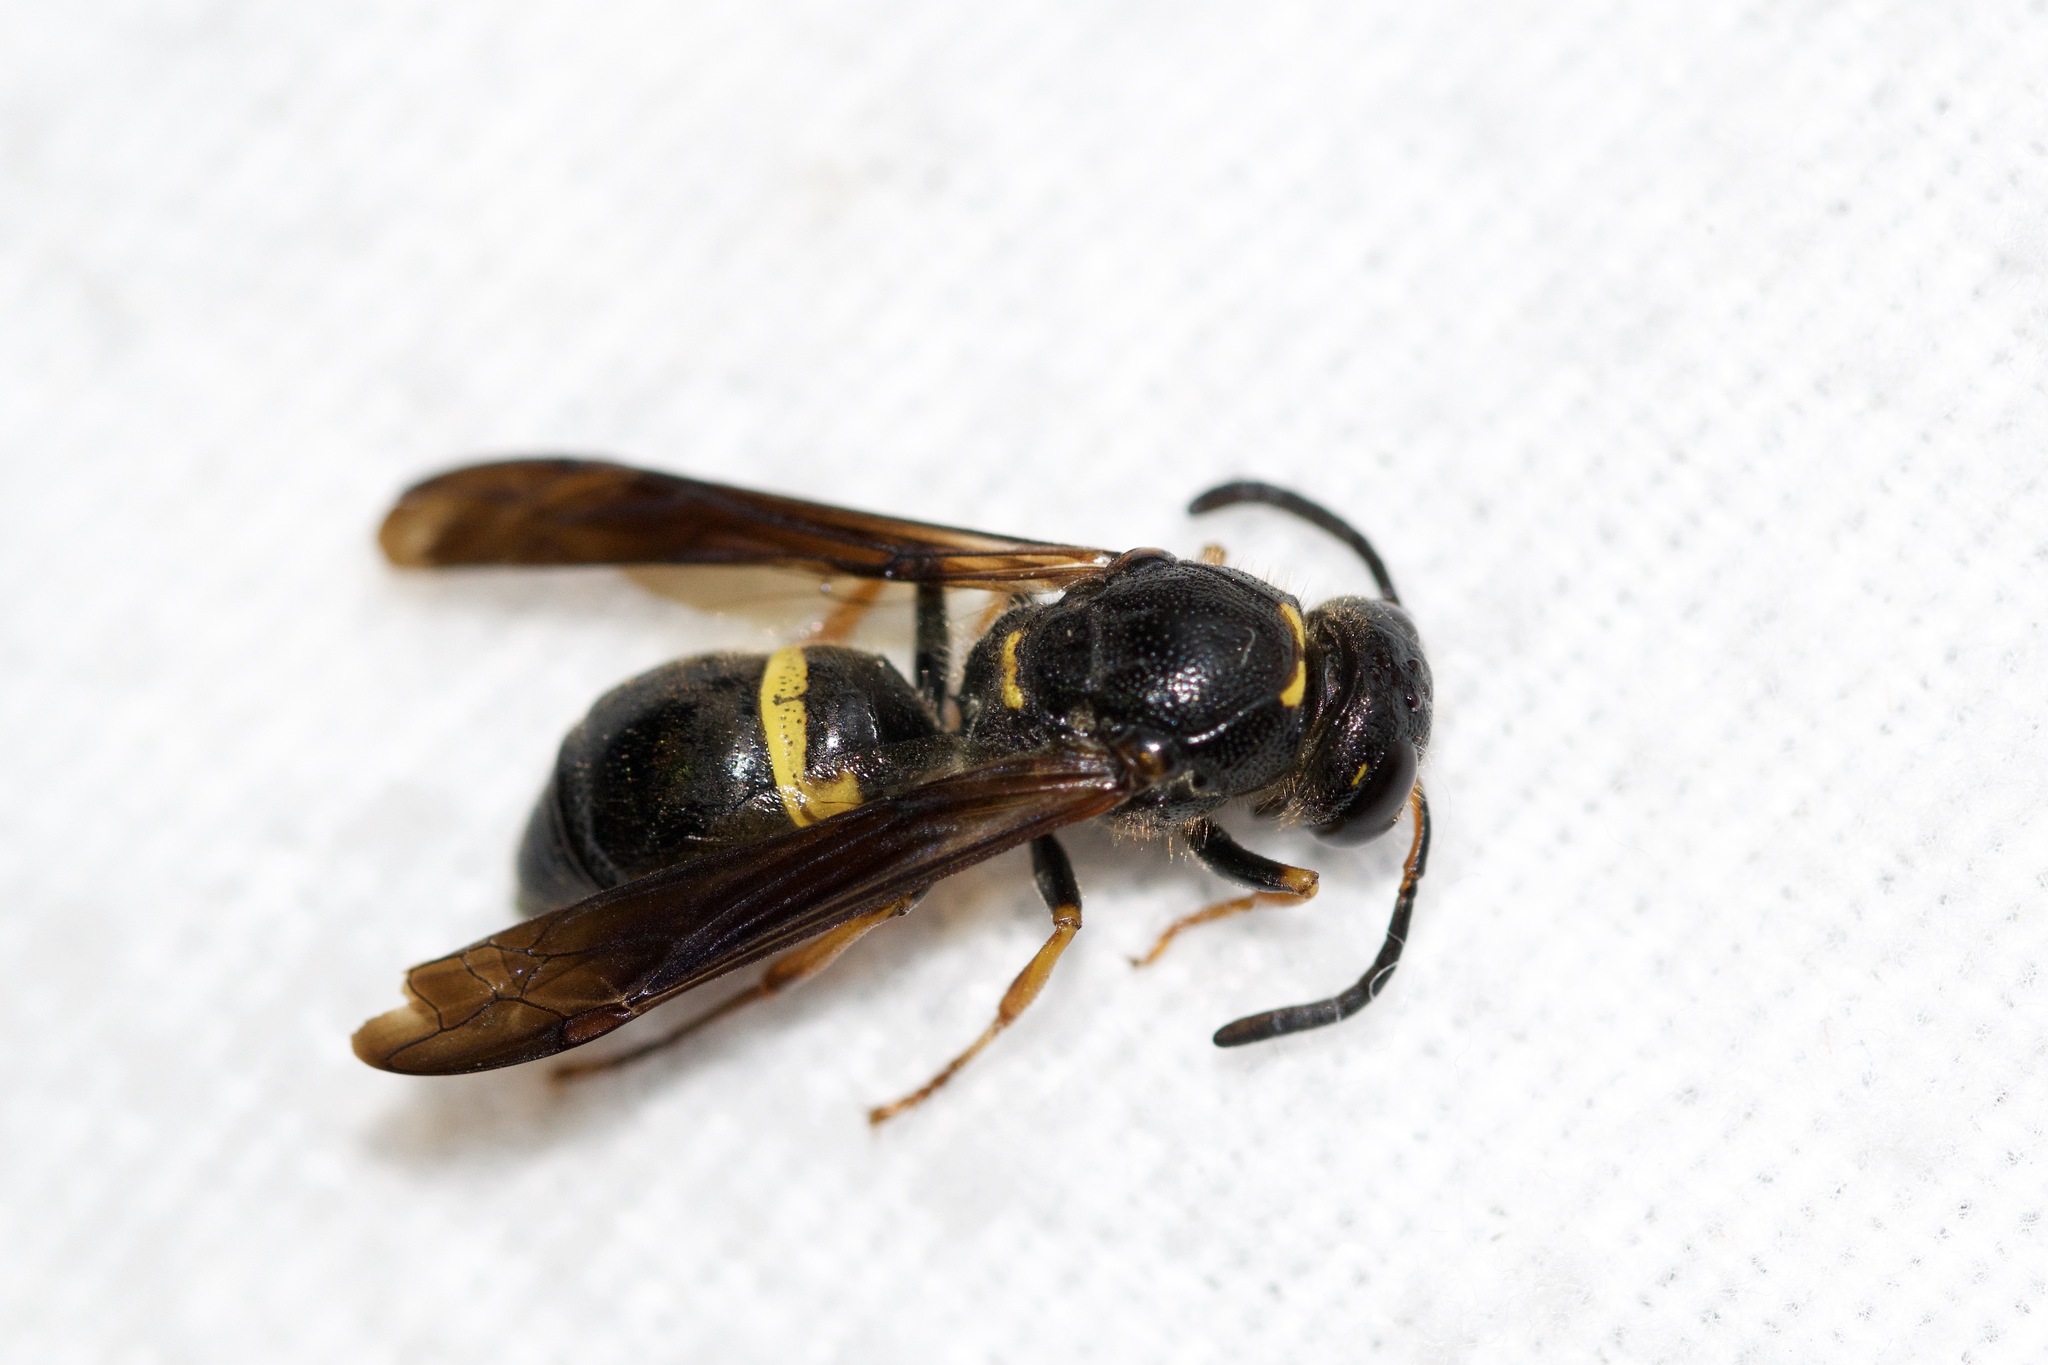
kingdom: Animalia
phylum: Arthropoda
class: Insecta
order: Hymenoptera
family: Vespidae
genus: Ancistrocerus
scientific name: Ancistrocerus unifasciatus
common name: One-banded mason wasp
